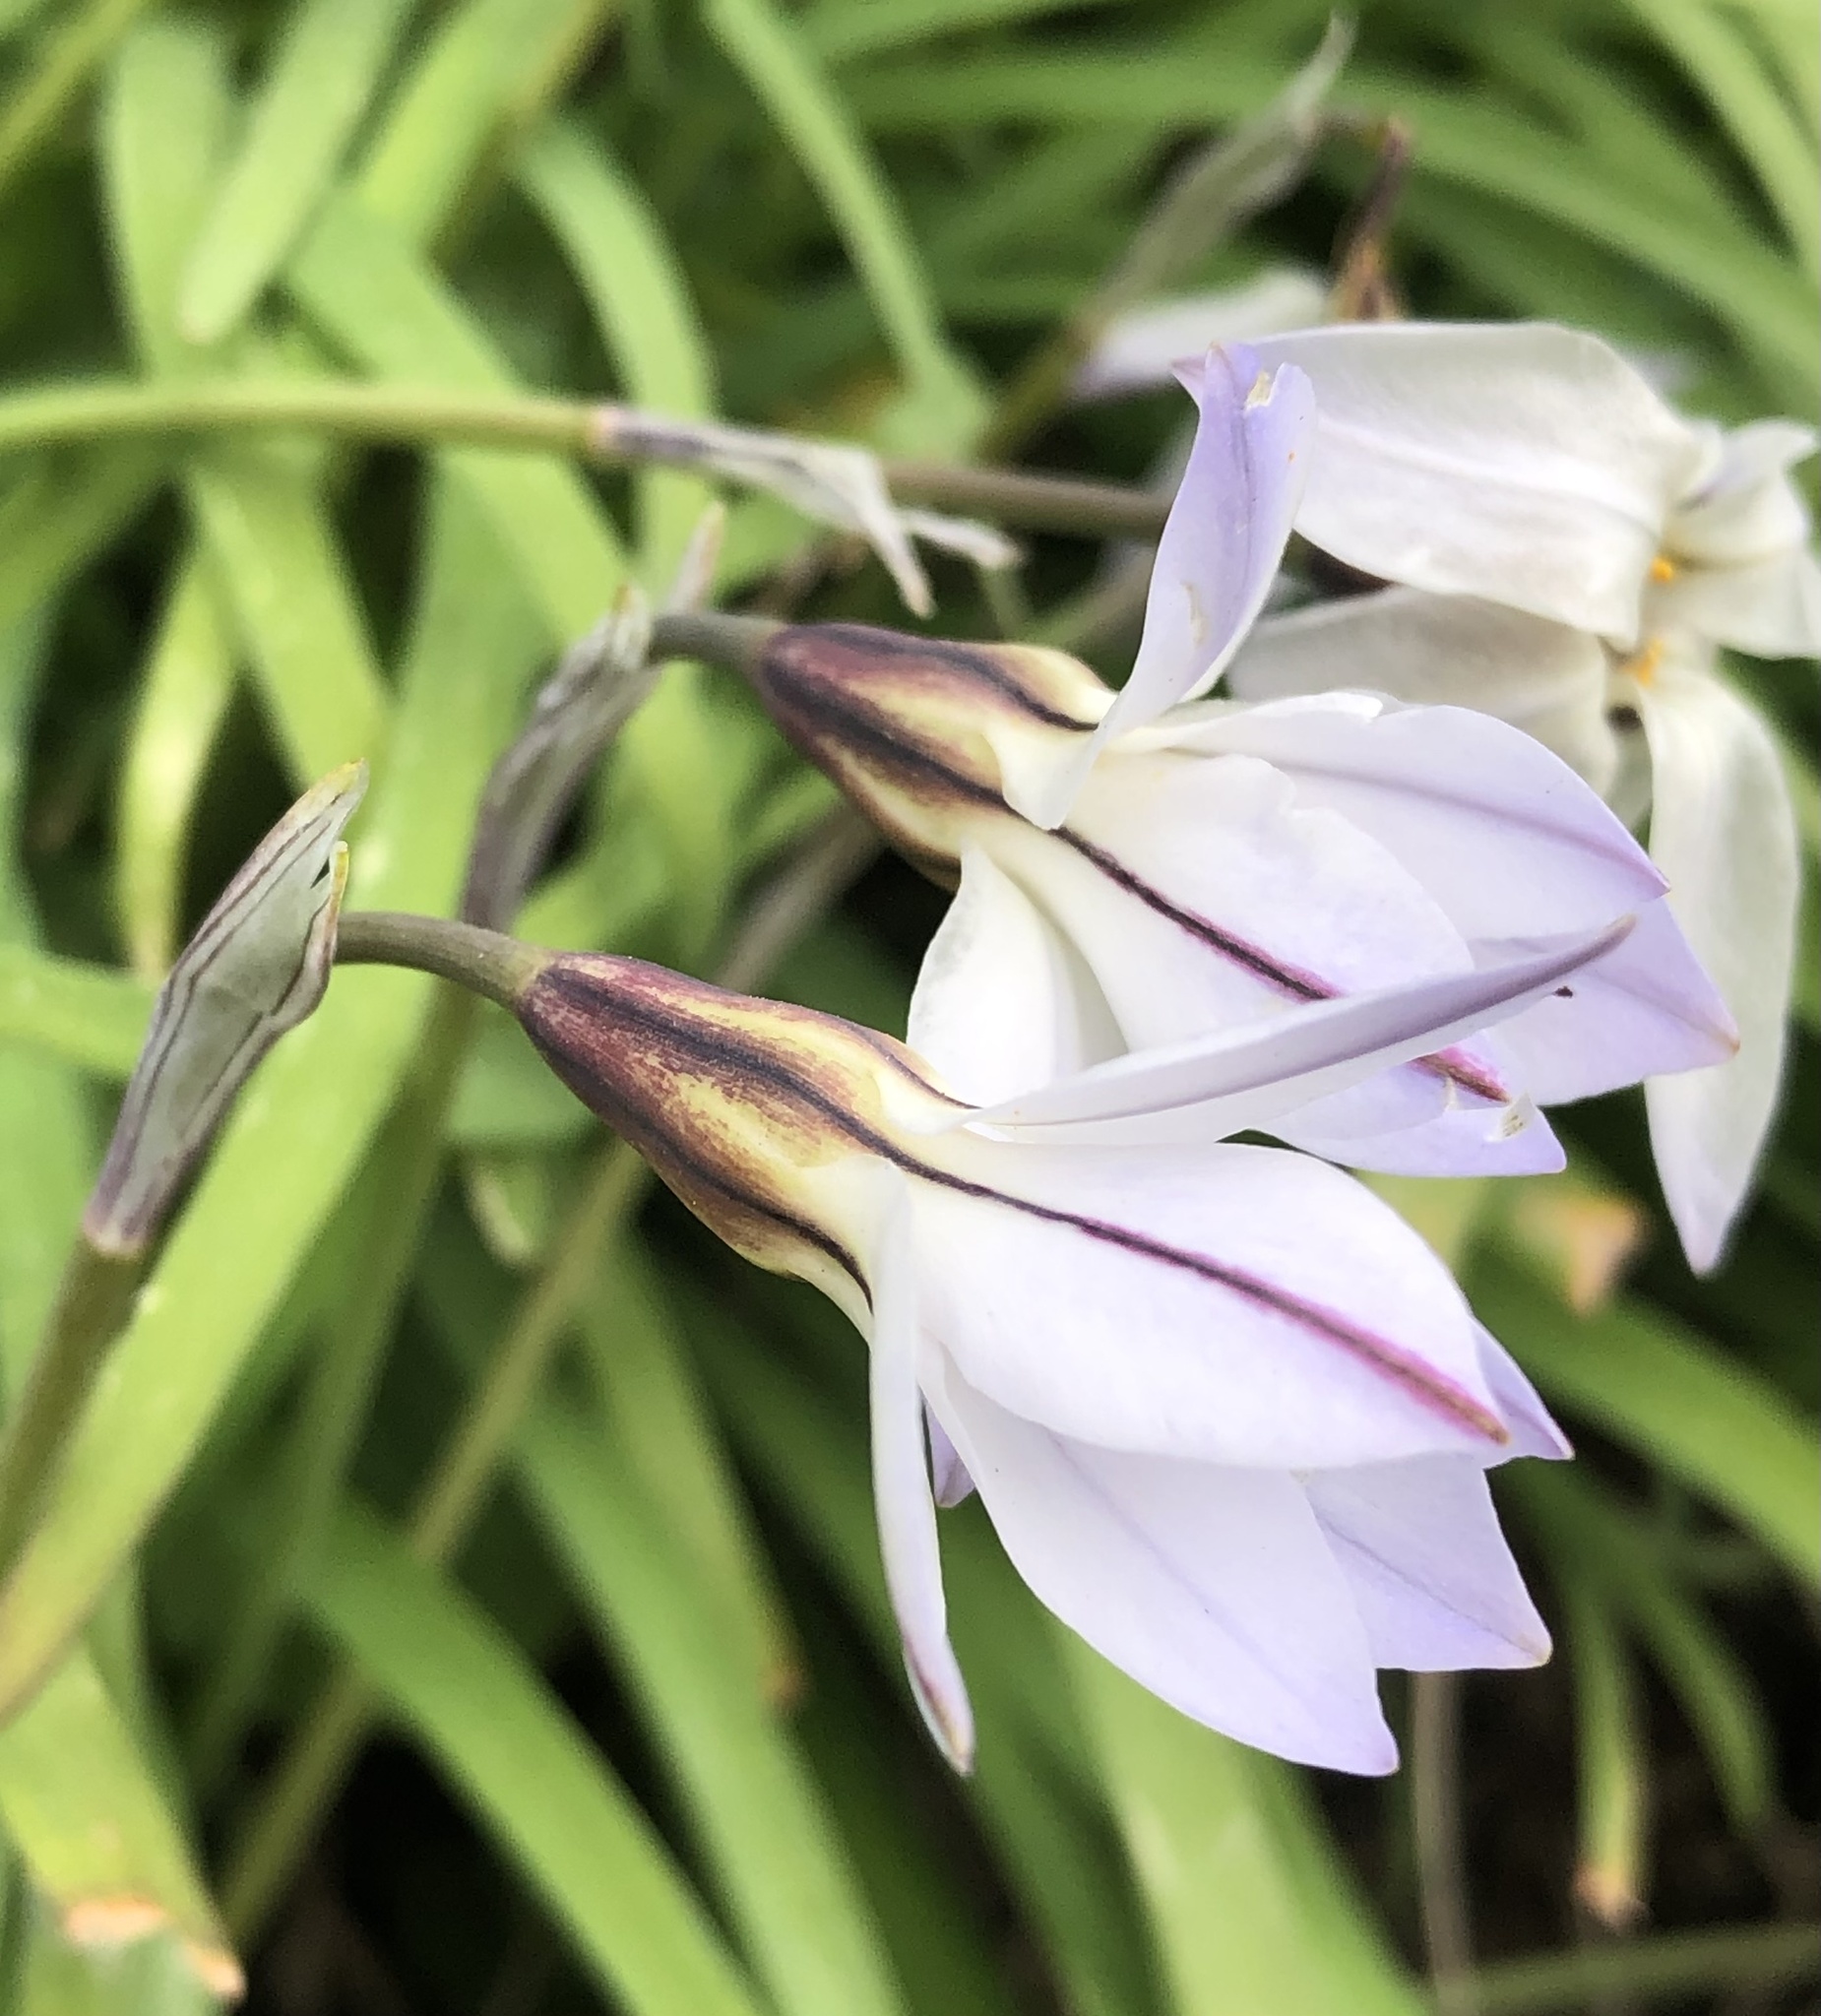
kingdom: Plantae
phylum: Tracheophyta
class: Liliopsida
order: Asparagales
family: Amaryllidaceae
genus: Ipheion
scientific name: Ipheion uniflorum
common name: Spring starflower
